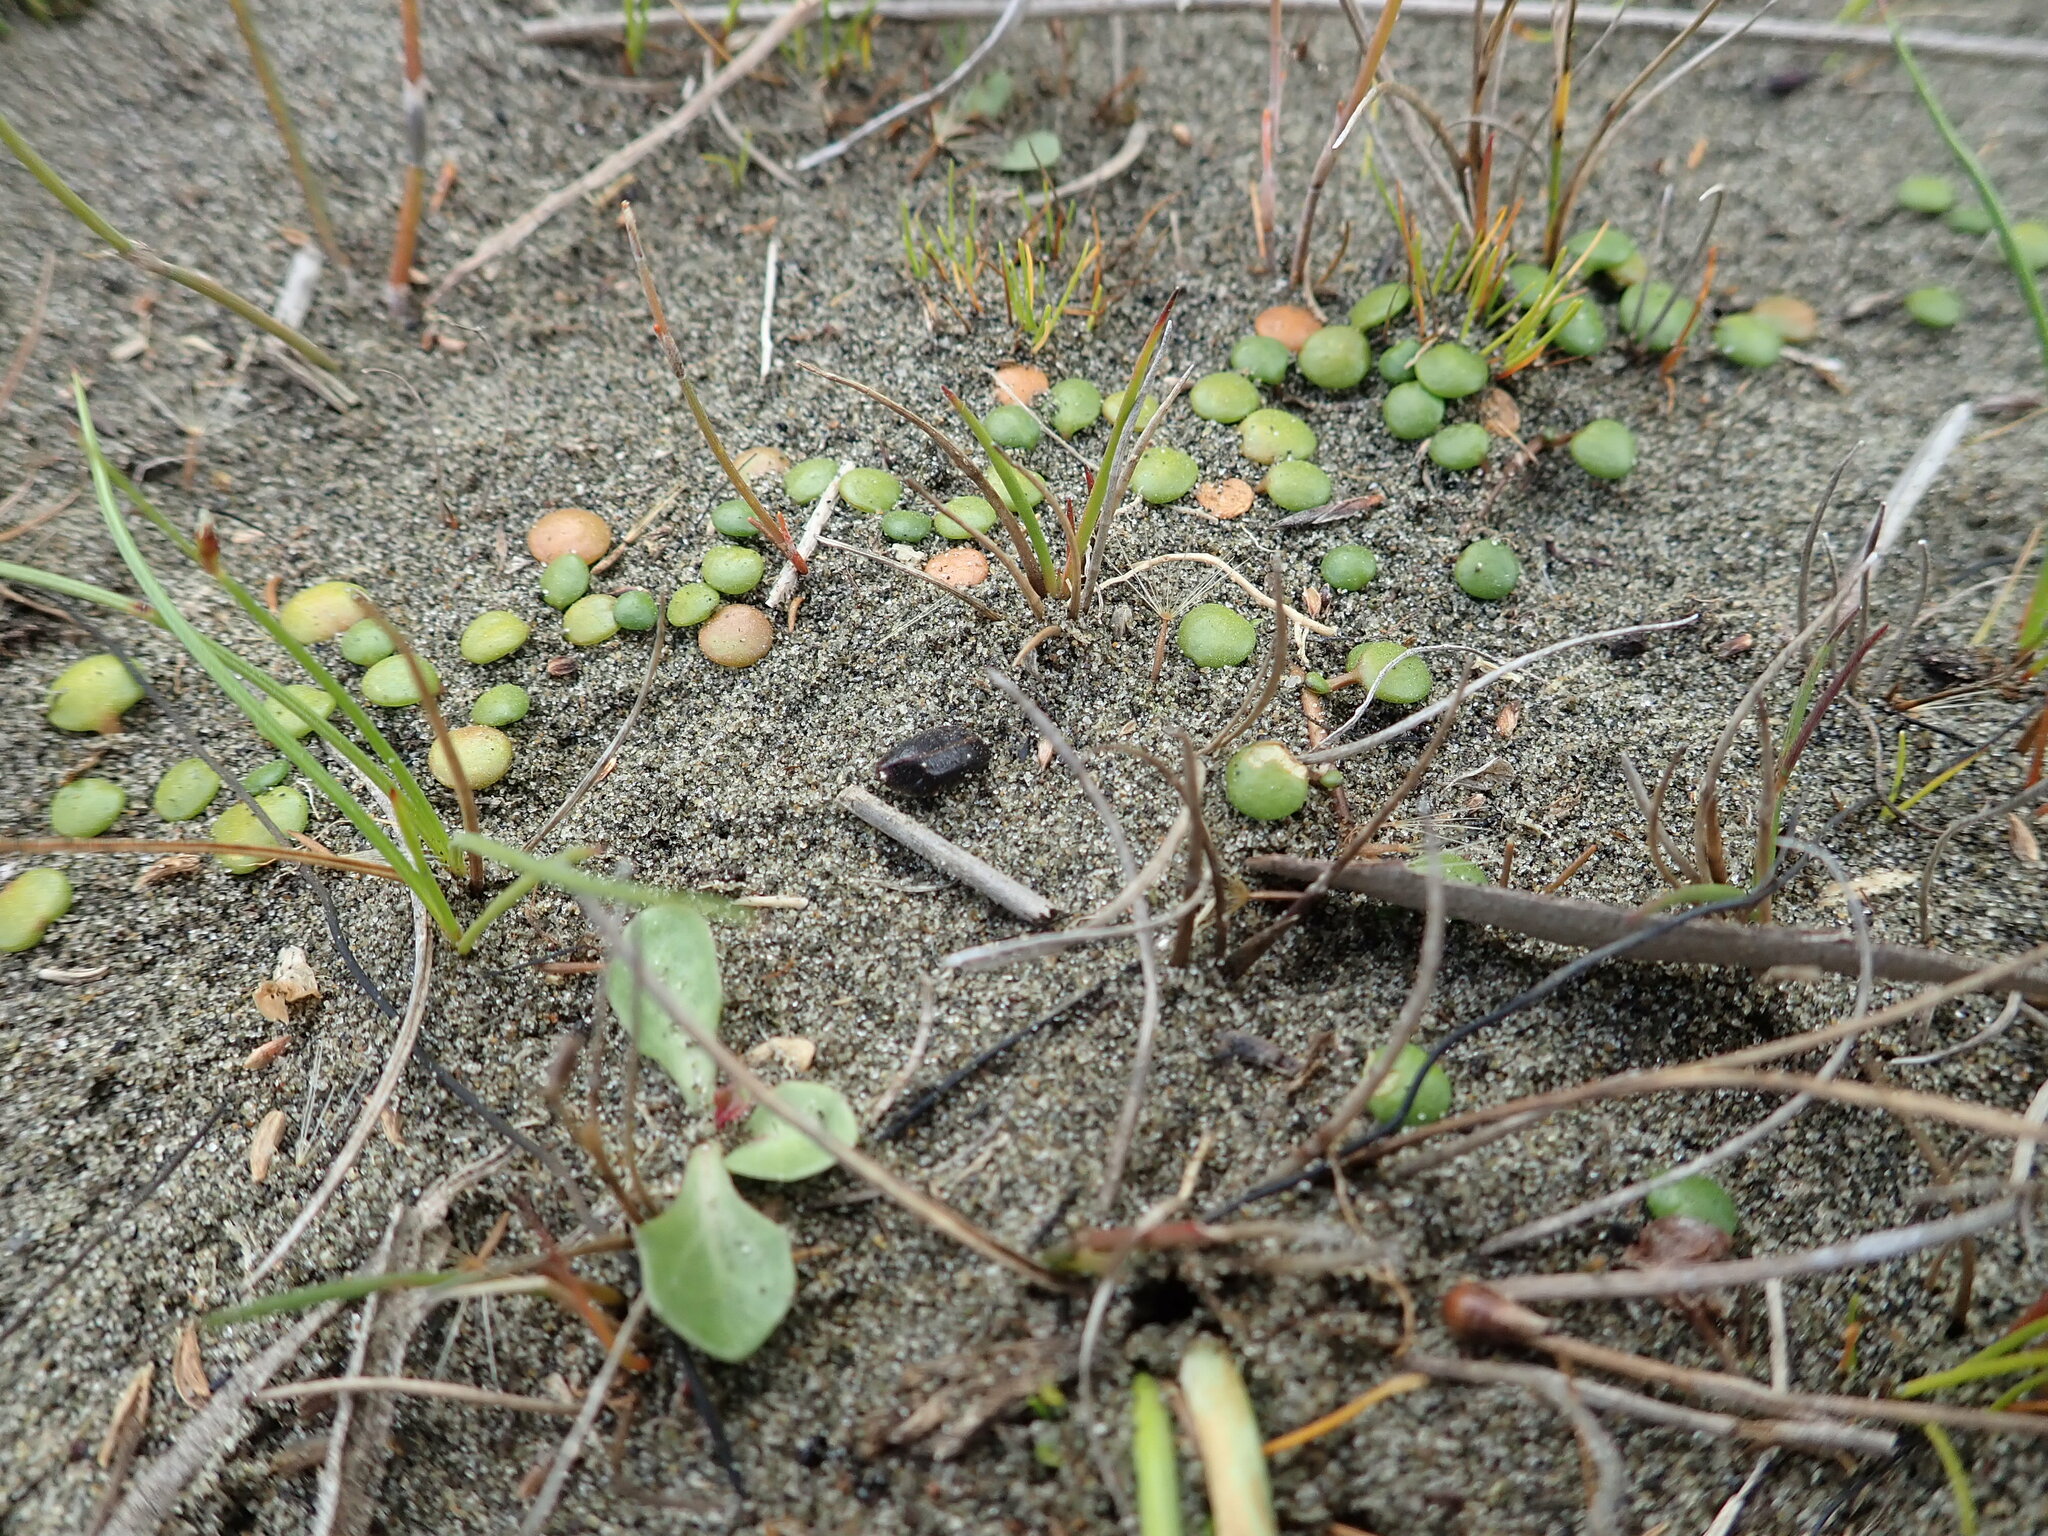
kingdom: Plantae
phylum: Tracheophyta
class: Magnoliopsida
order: Asterales
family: Goodeniaceae
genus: Goodenia
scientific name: Goodenia heenanii
